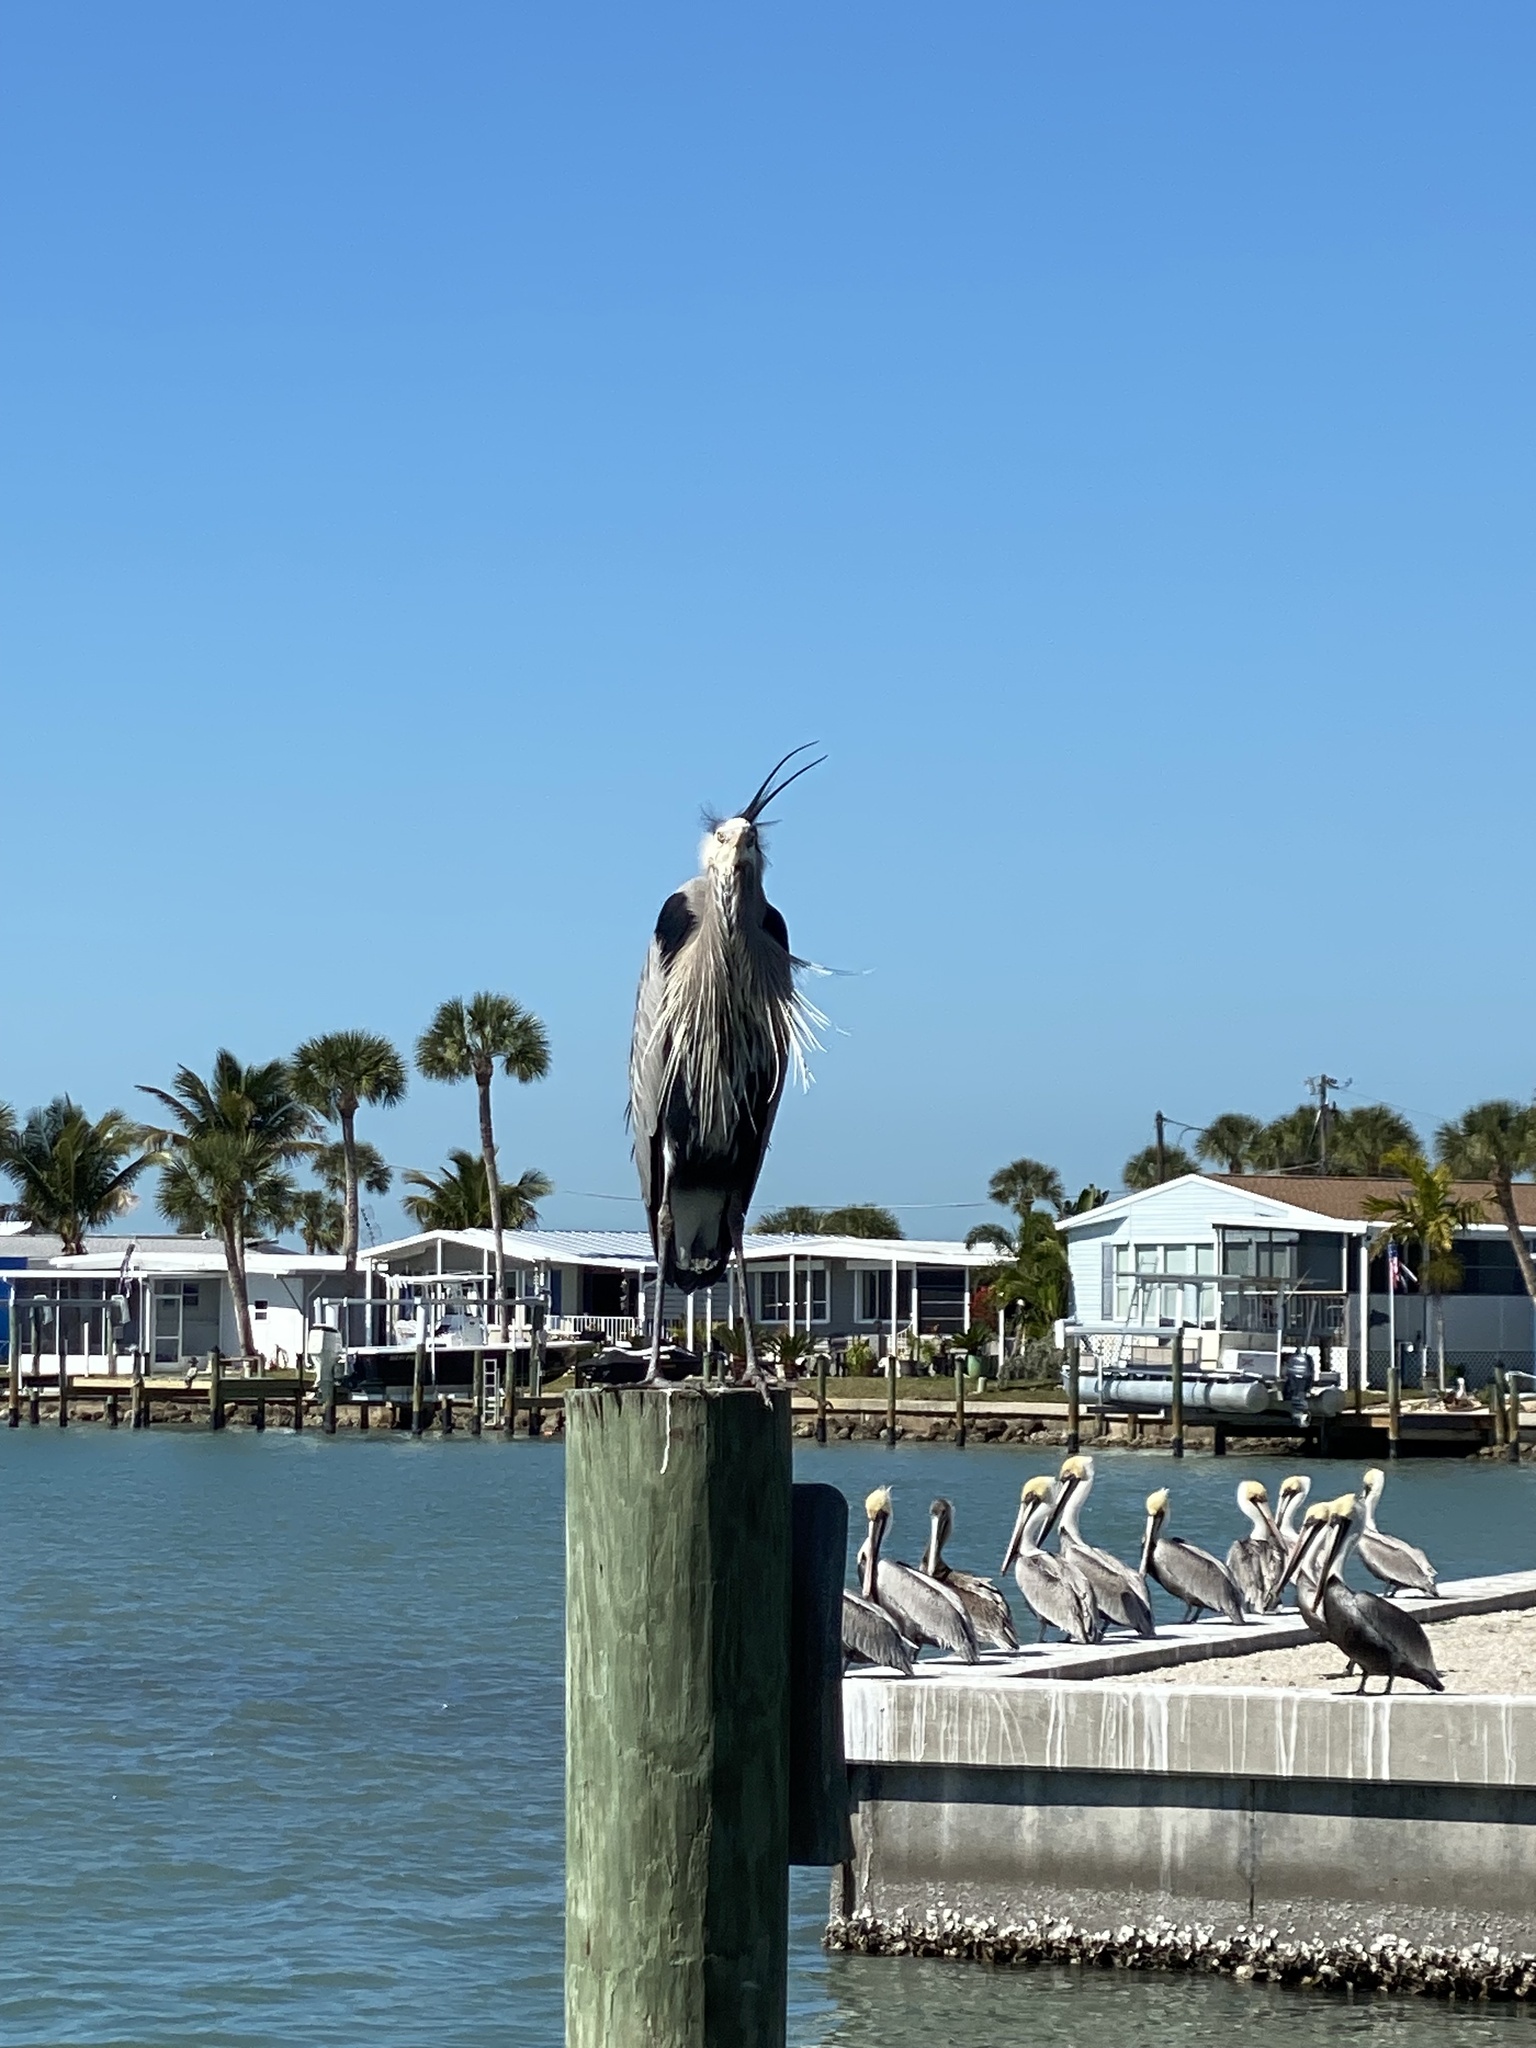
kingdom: Animalia
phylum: Chordata
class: Aves
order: Pelecaniformes
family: Ardeidae
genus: Ardea
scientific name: Ardea herodias
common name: Great blue heron
